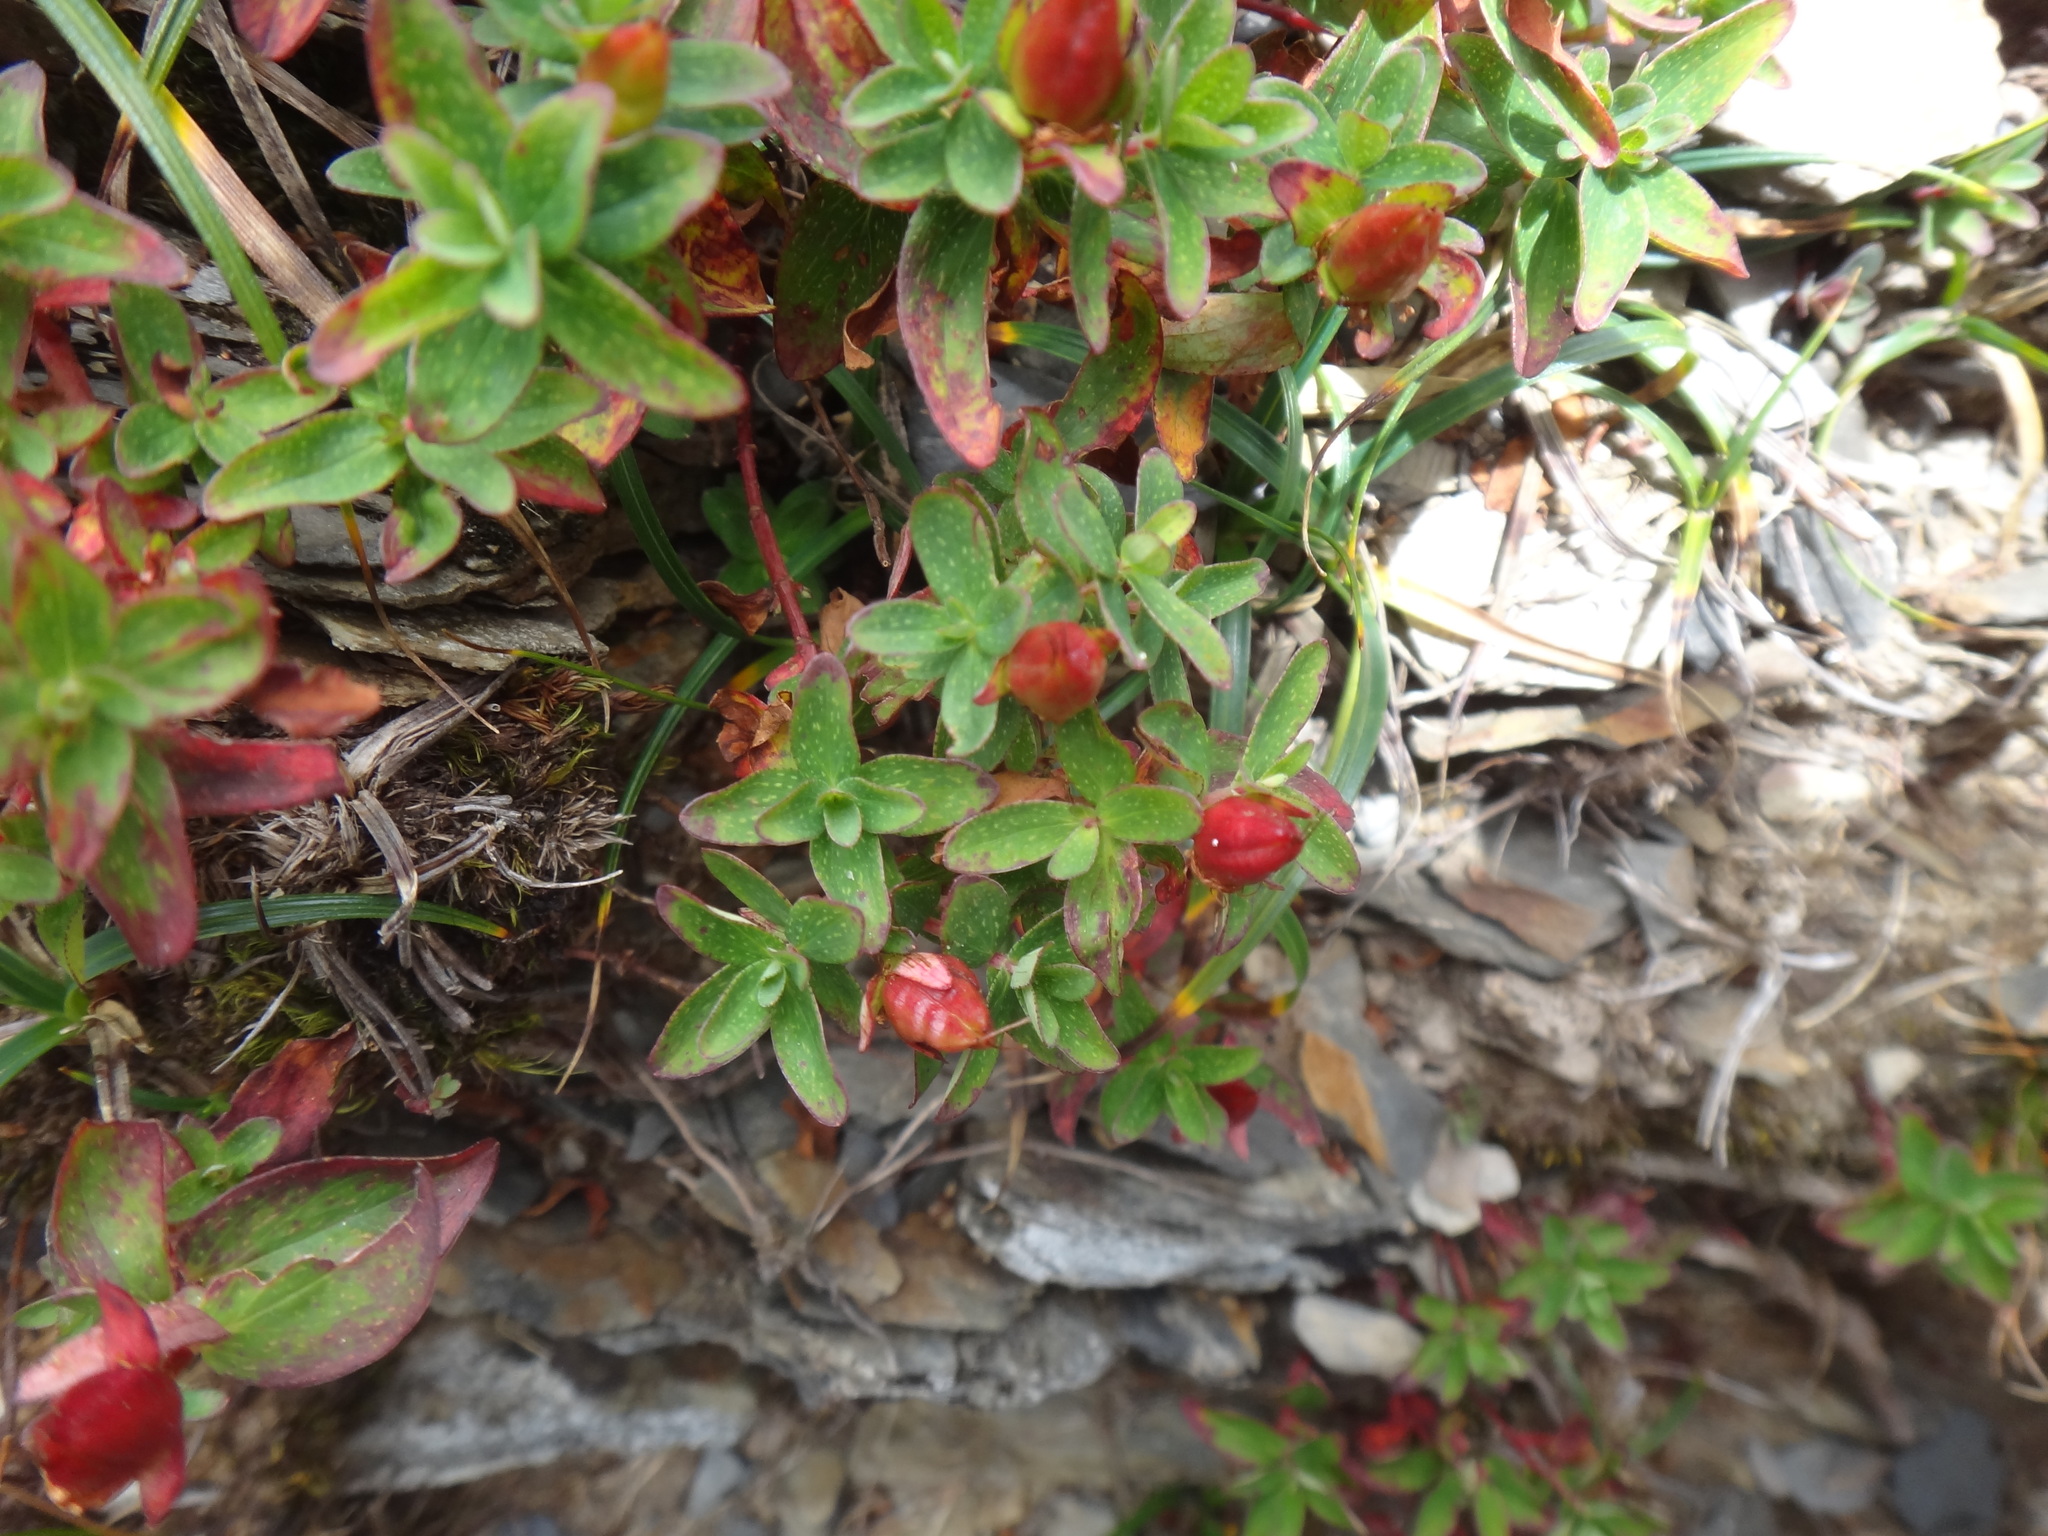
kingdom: Plantae
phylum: Tracheophyta
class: Magnoliopsida
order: Malpighiales
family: Hypericaceae
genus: Hypericum
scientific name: Hypericum nagasawae
